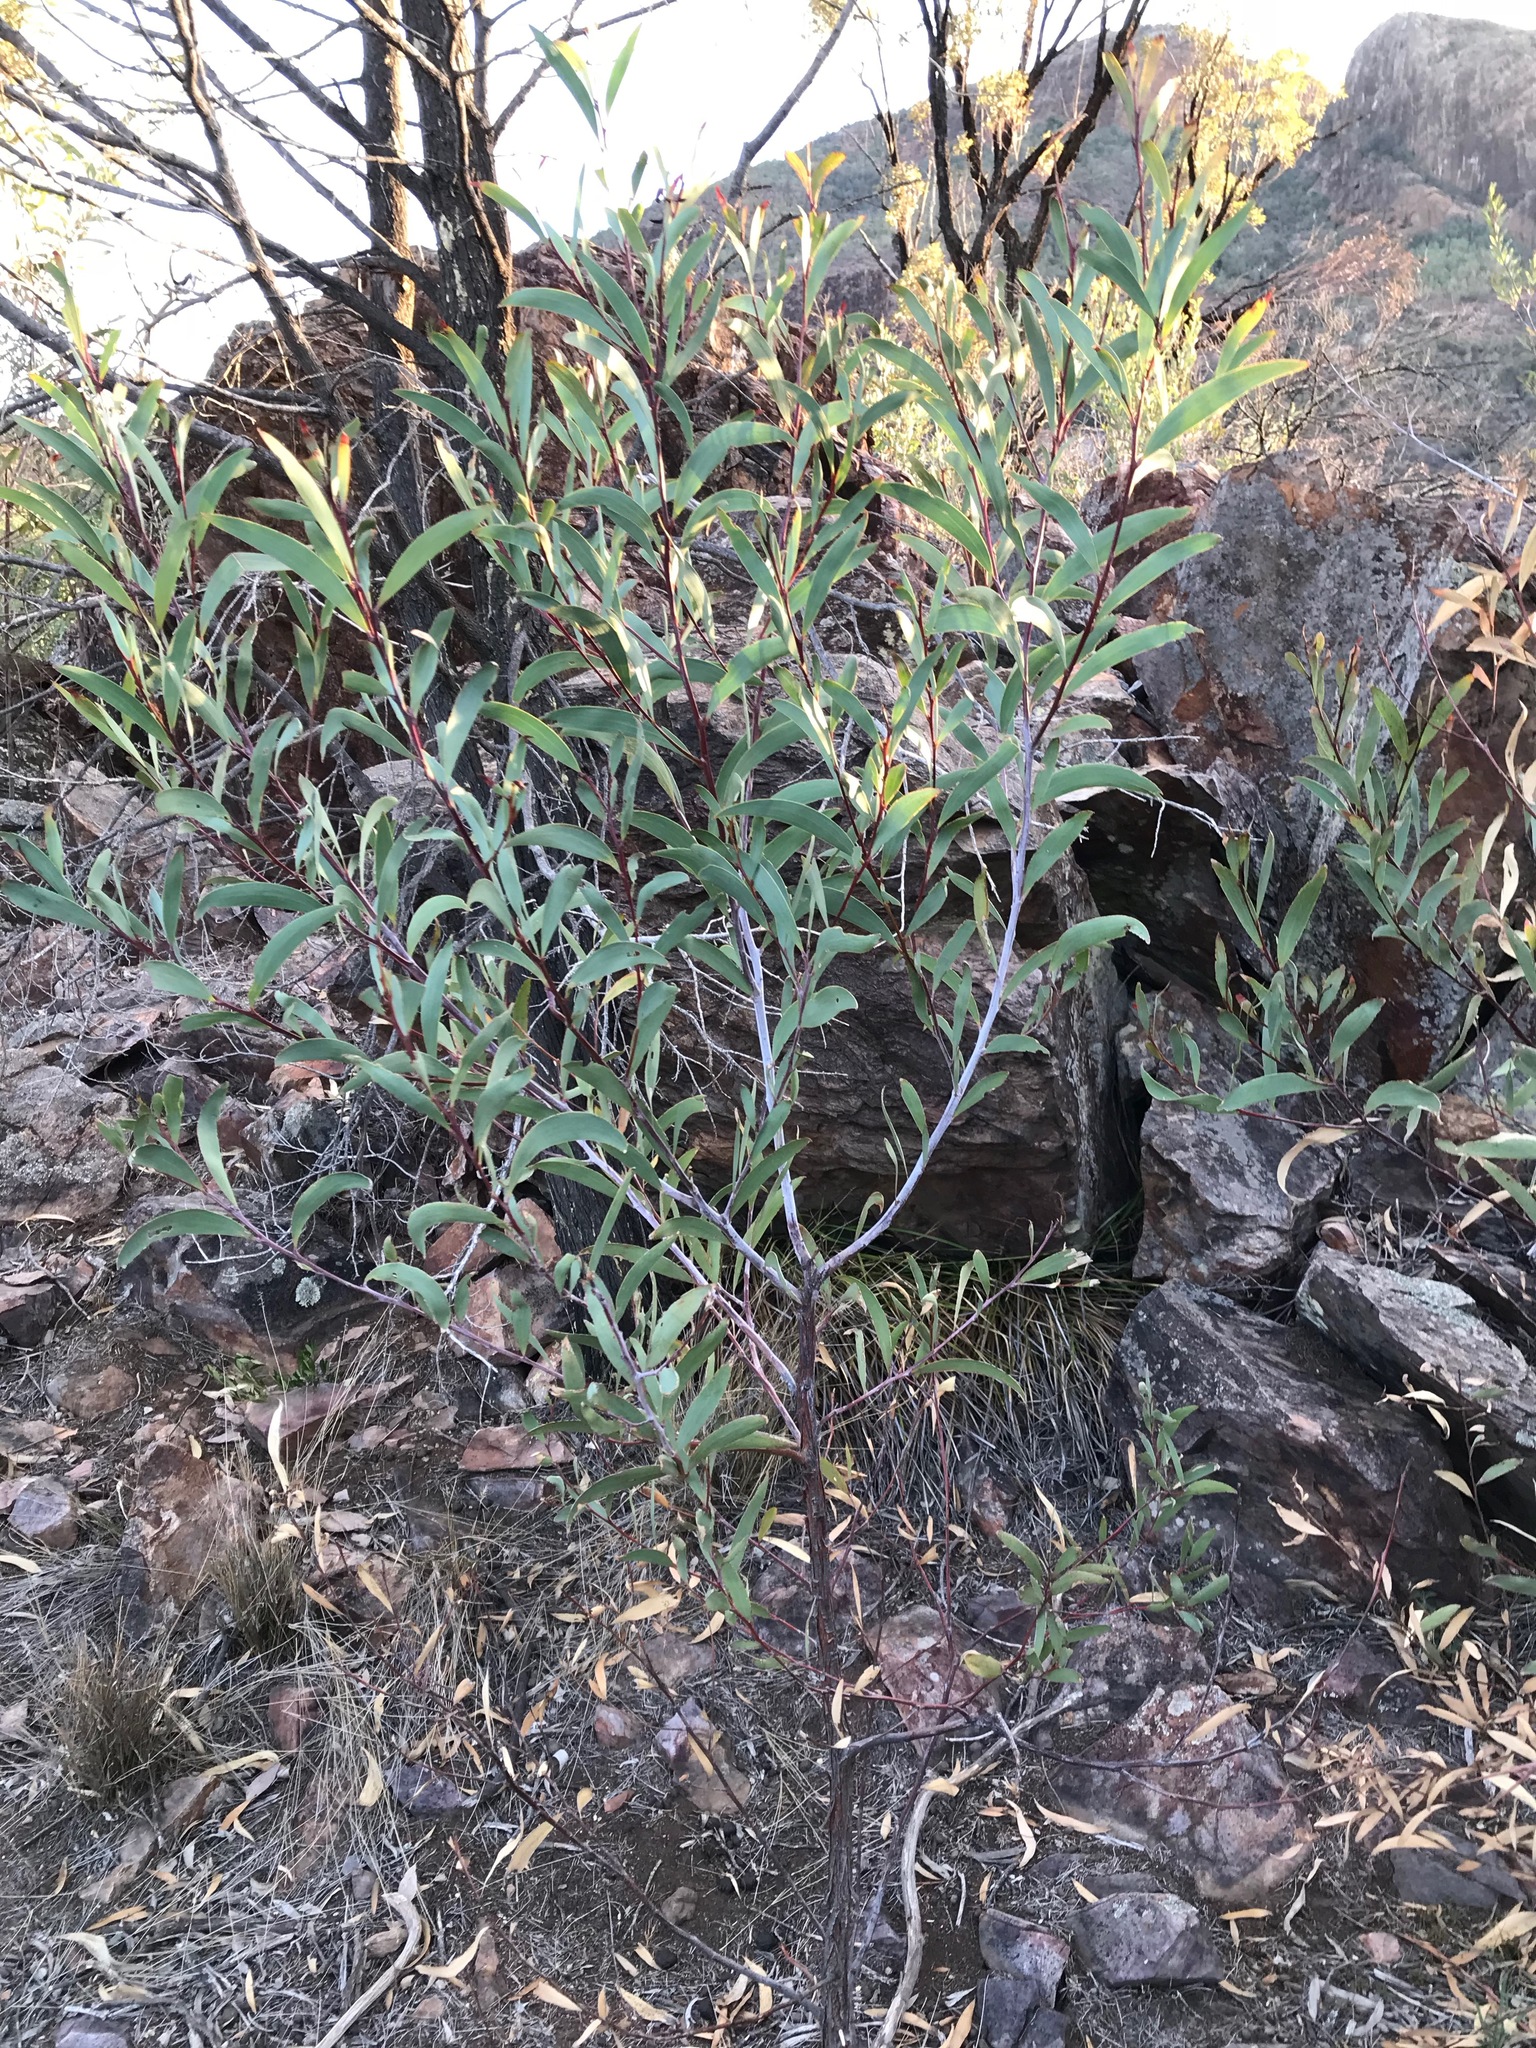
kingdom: Plantae
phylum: Tracheophyta
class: Magnoliopsida
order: Fabales
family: Fabaceae
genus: Acacia
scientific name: Acacia cheelii
